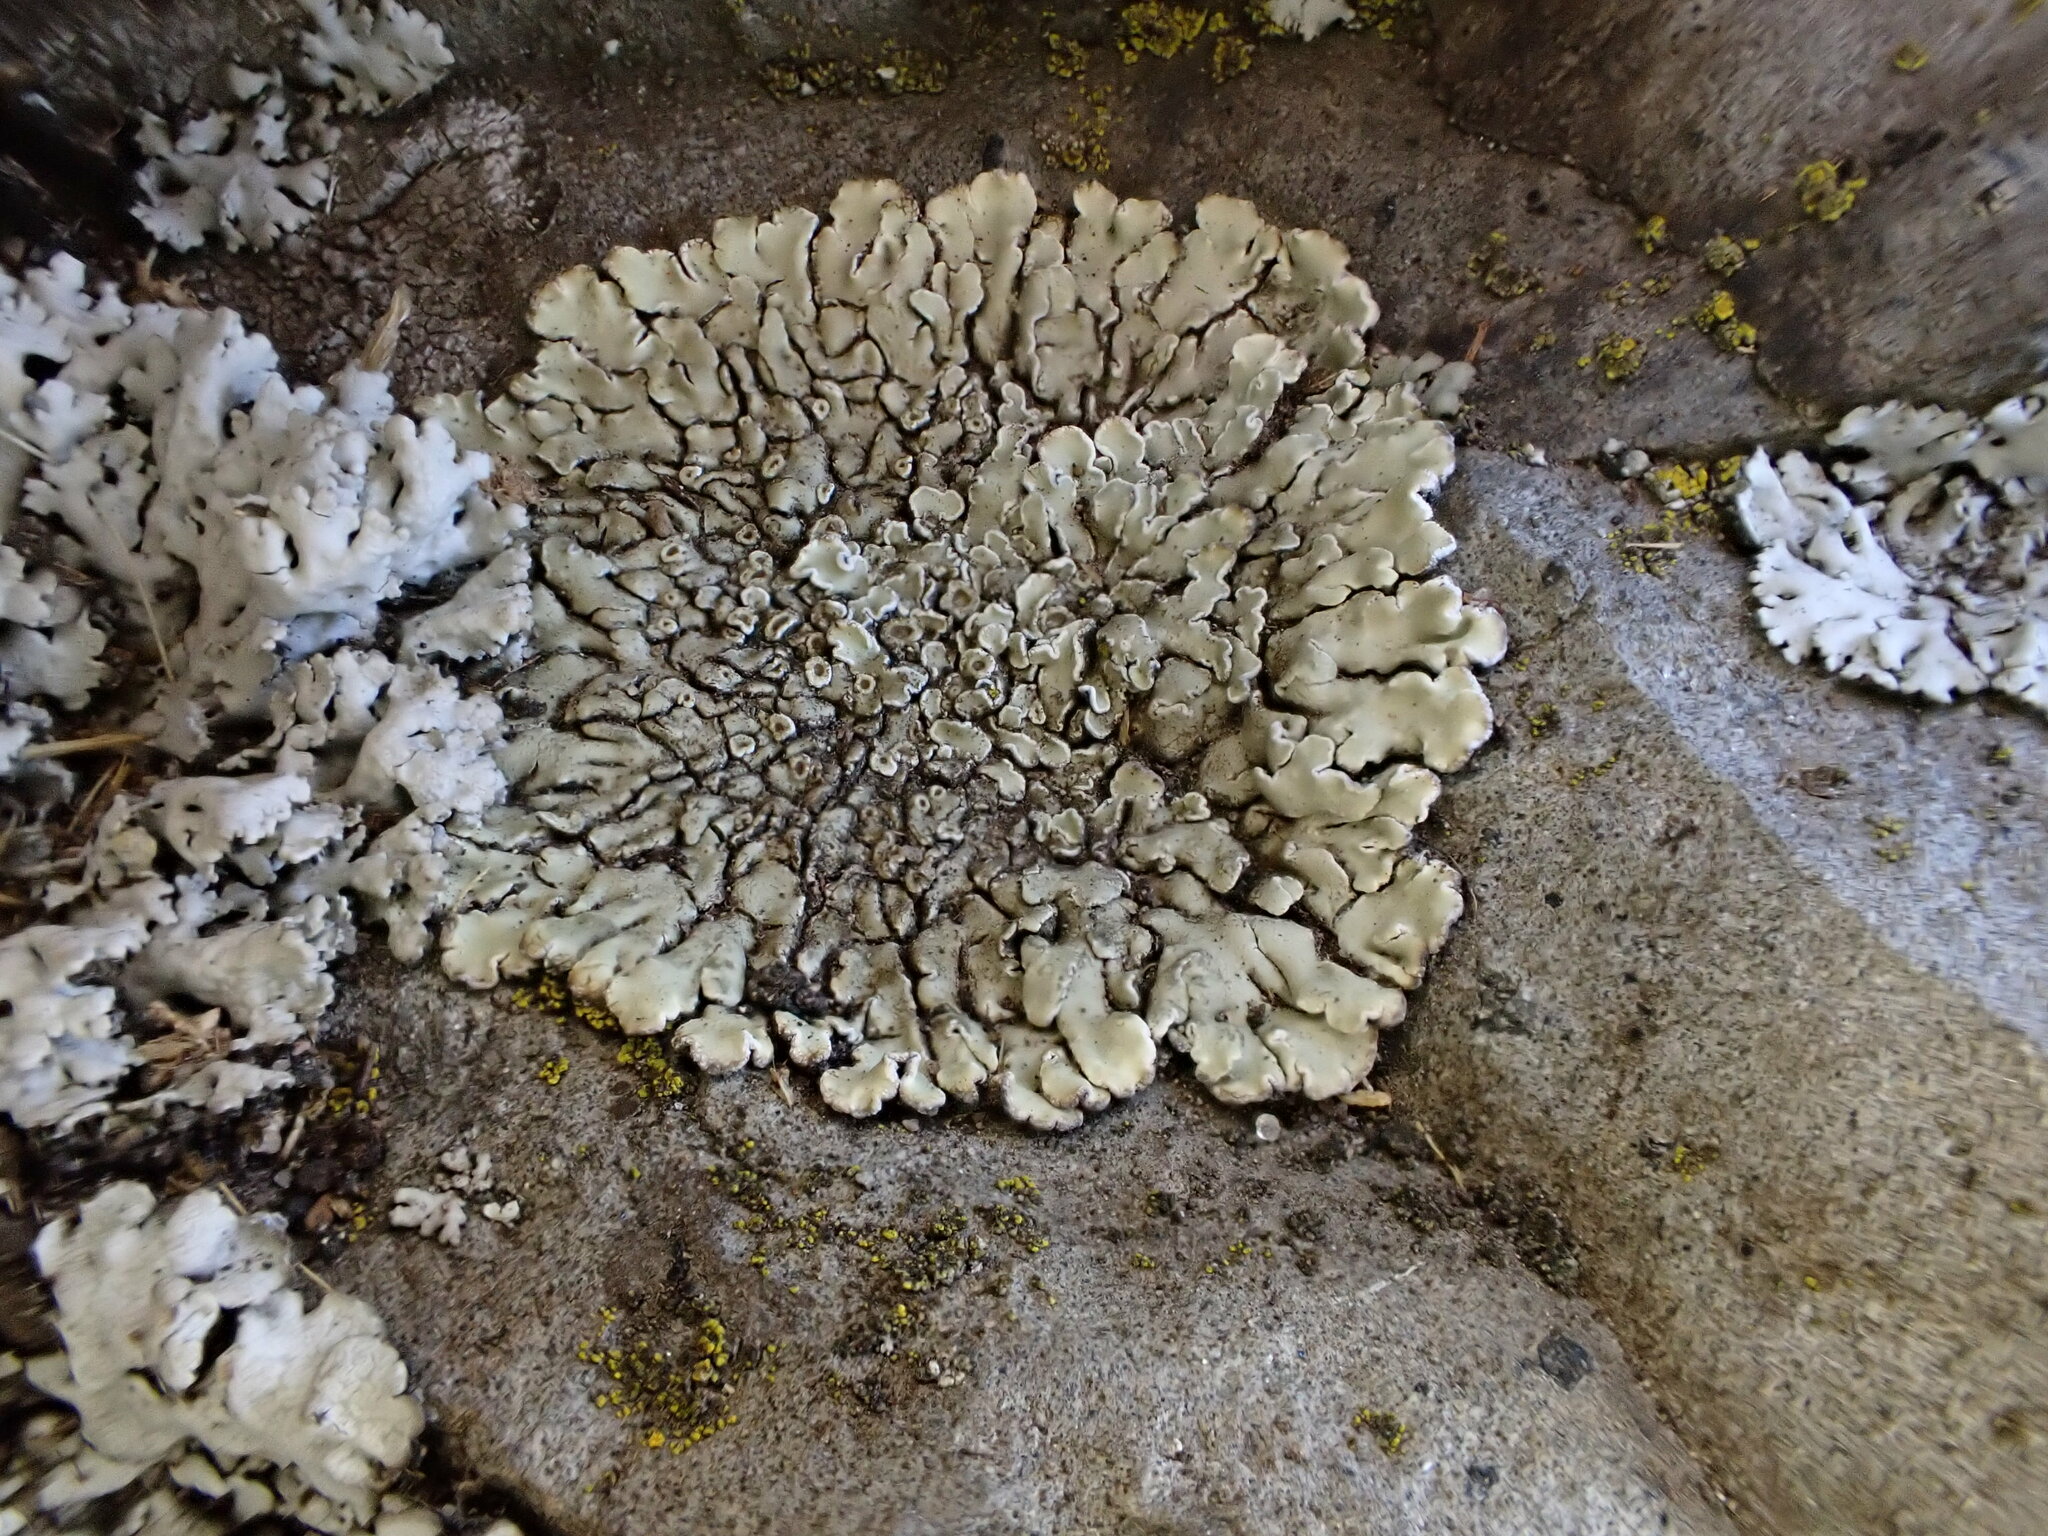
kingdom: Fungi
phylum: Ascomycota
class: Lecanoromycetes
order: Lecanorales
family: Lecanoraceae
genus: Protoparmeliopsis
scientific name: Protoparmeliopsis muralis
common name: Stonewall rim lichen
